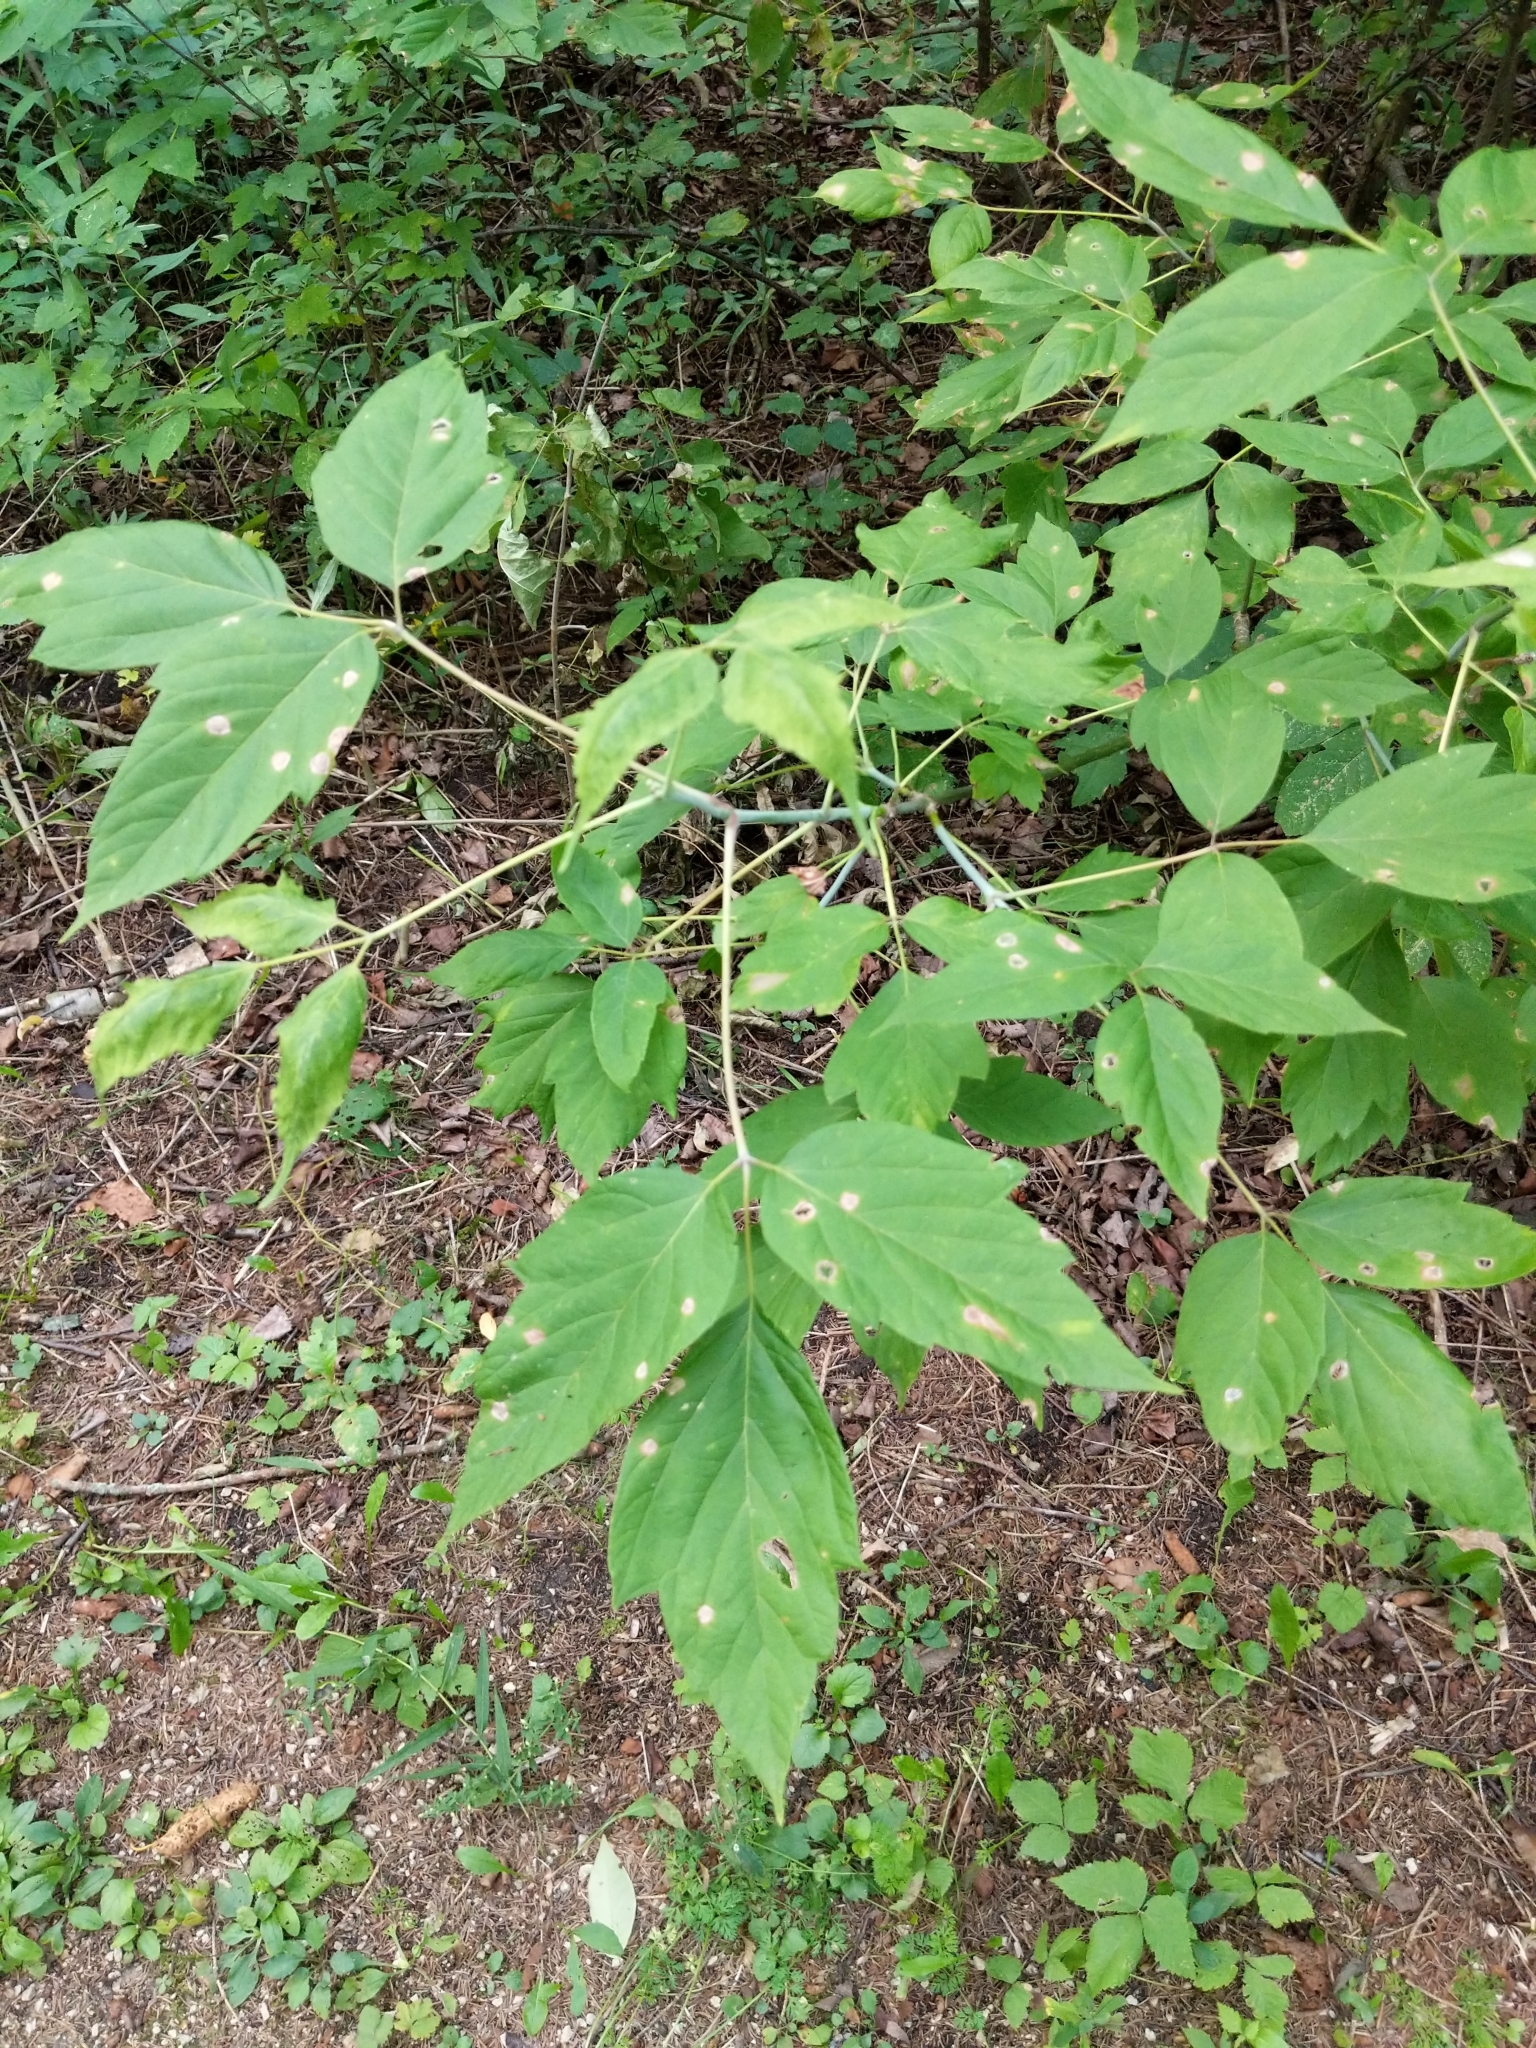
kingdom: Plantae
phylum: Tracheophyta
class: Magnoliopsida
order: Sapindales
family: Sapindaceae
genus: Acer
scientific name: Acer negundo
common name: Ashleaf maple
